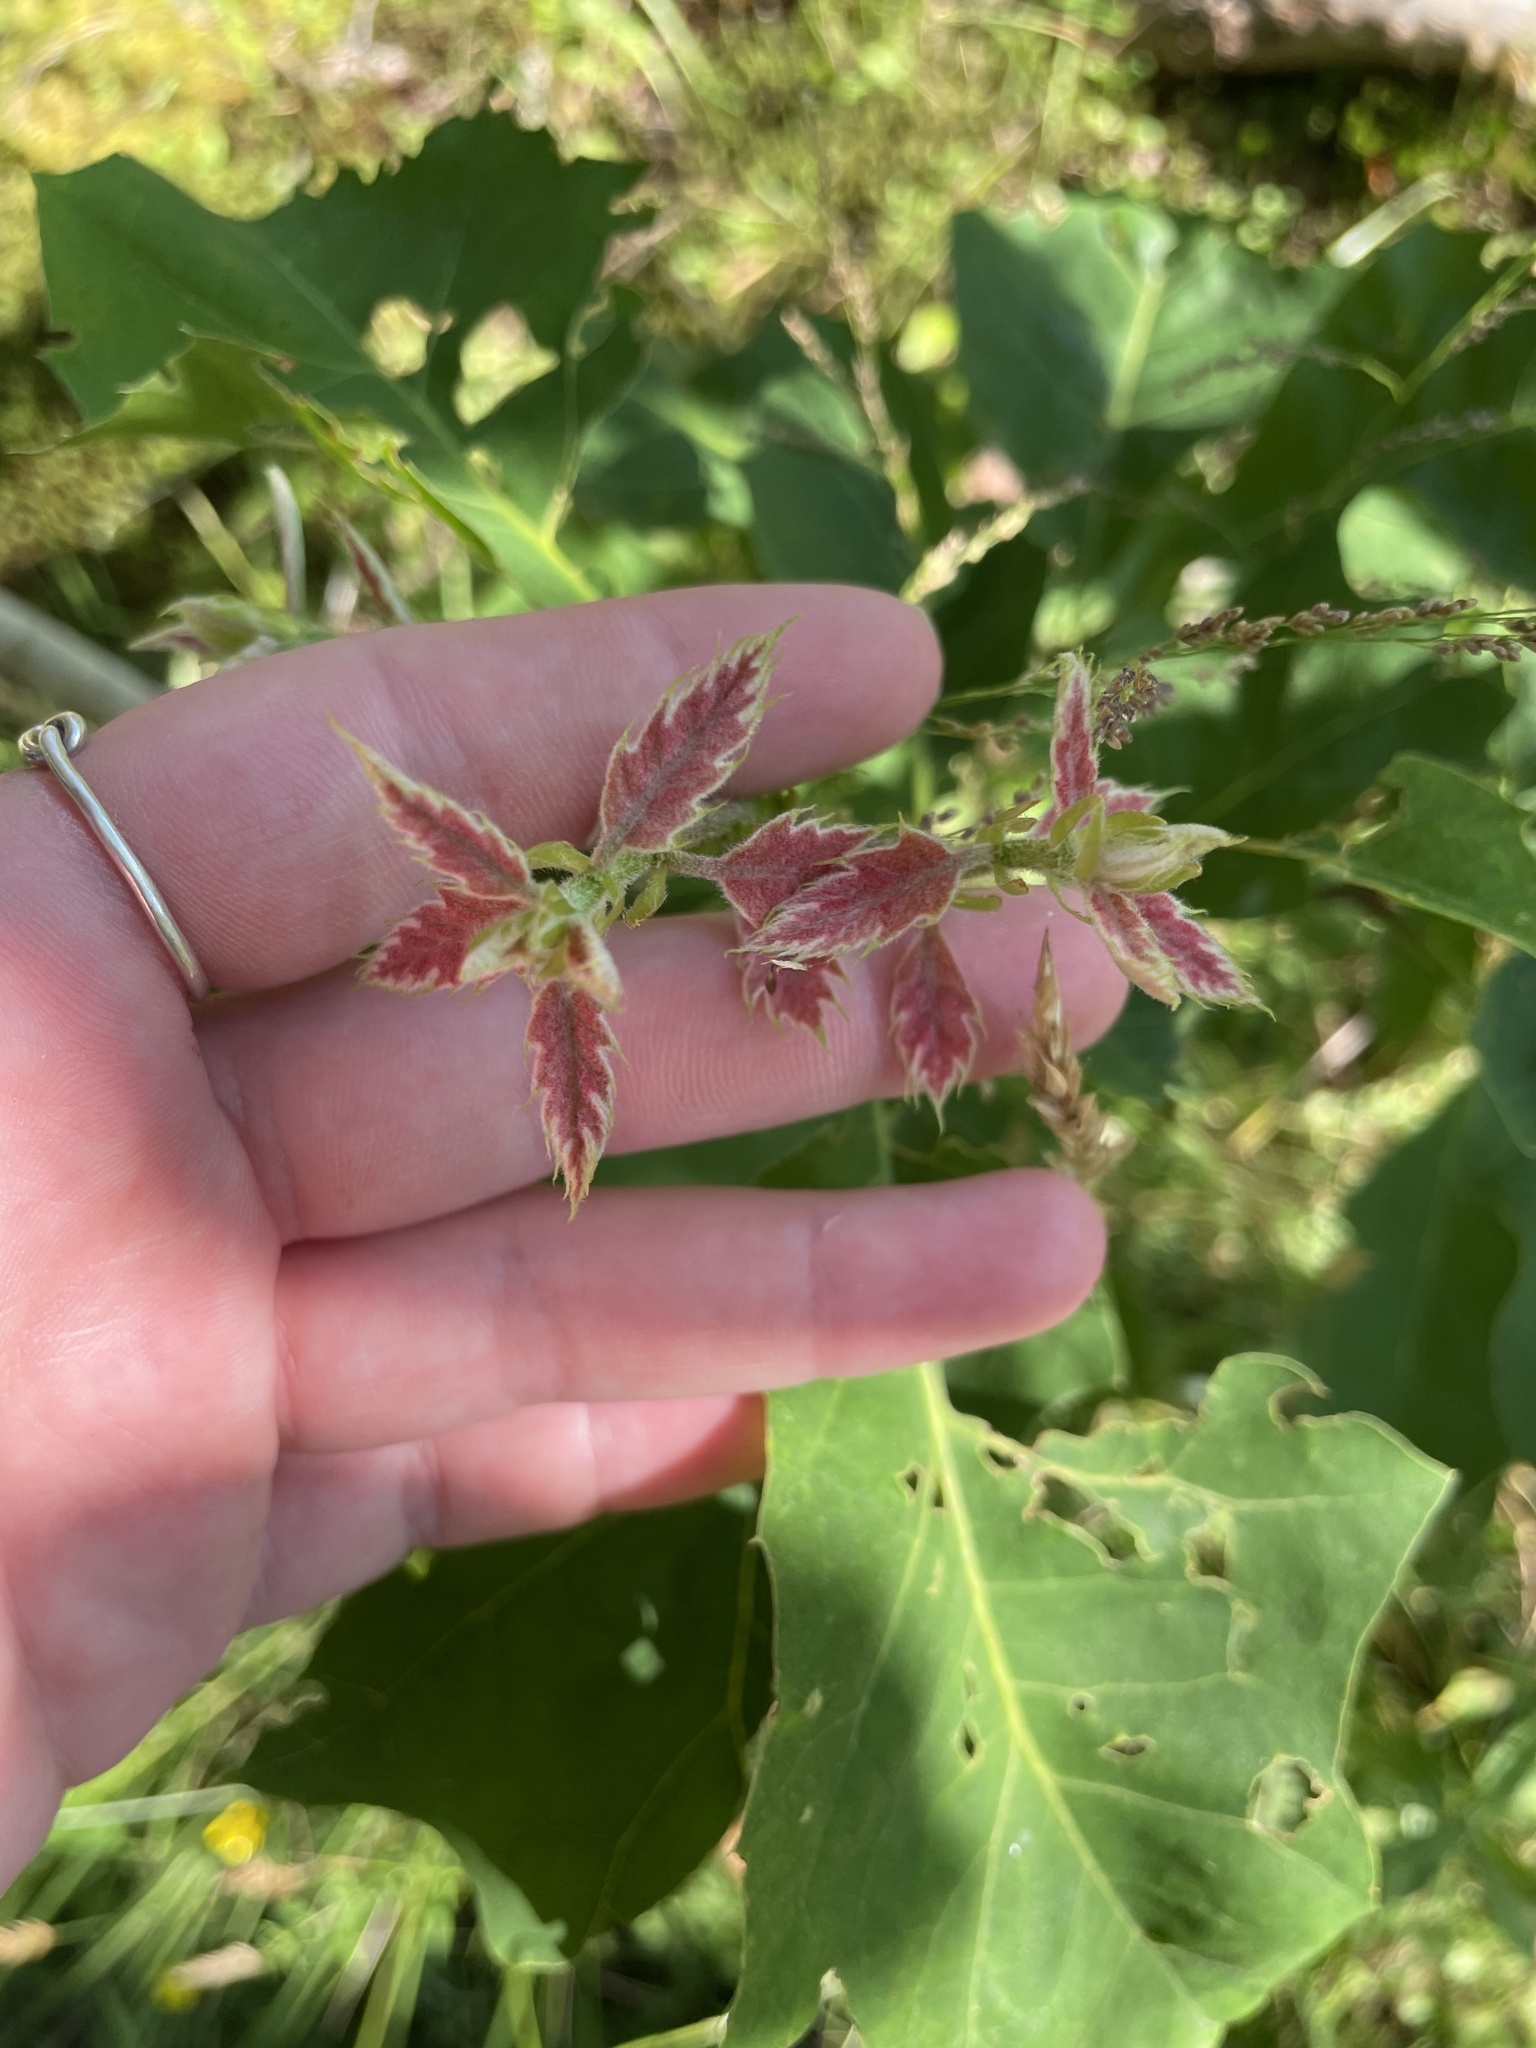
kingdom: Plantae
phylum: Tracheophyta
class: Magnoliopsida
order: Fagales
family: Fagaceae
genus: Quercus
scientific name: Quercus rubra
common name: Red oak
